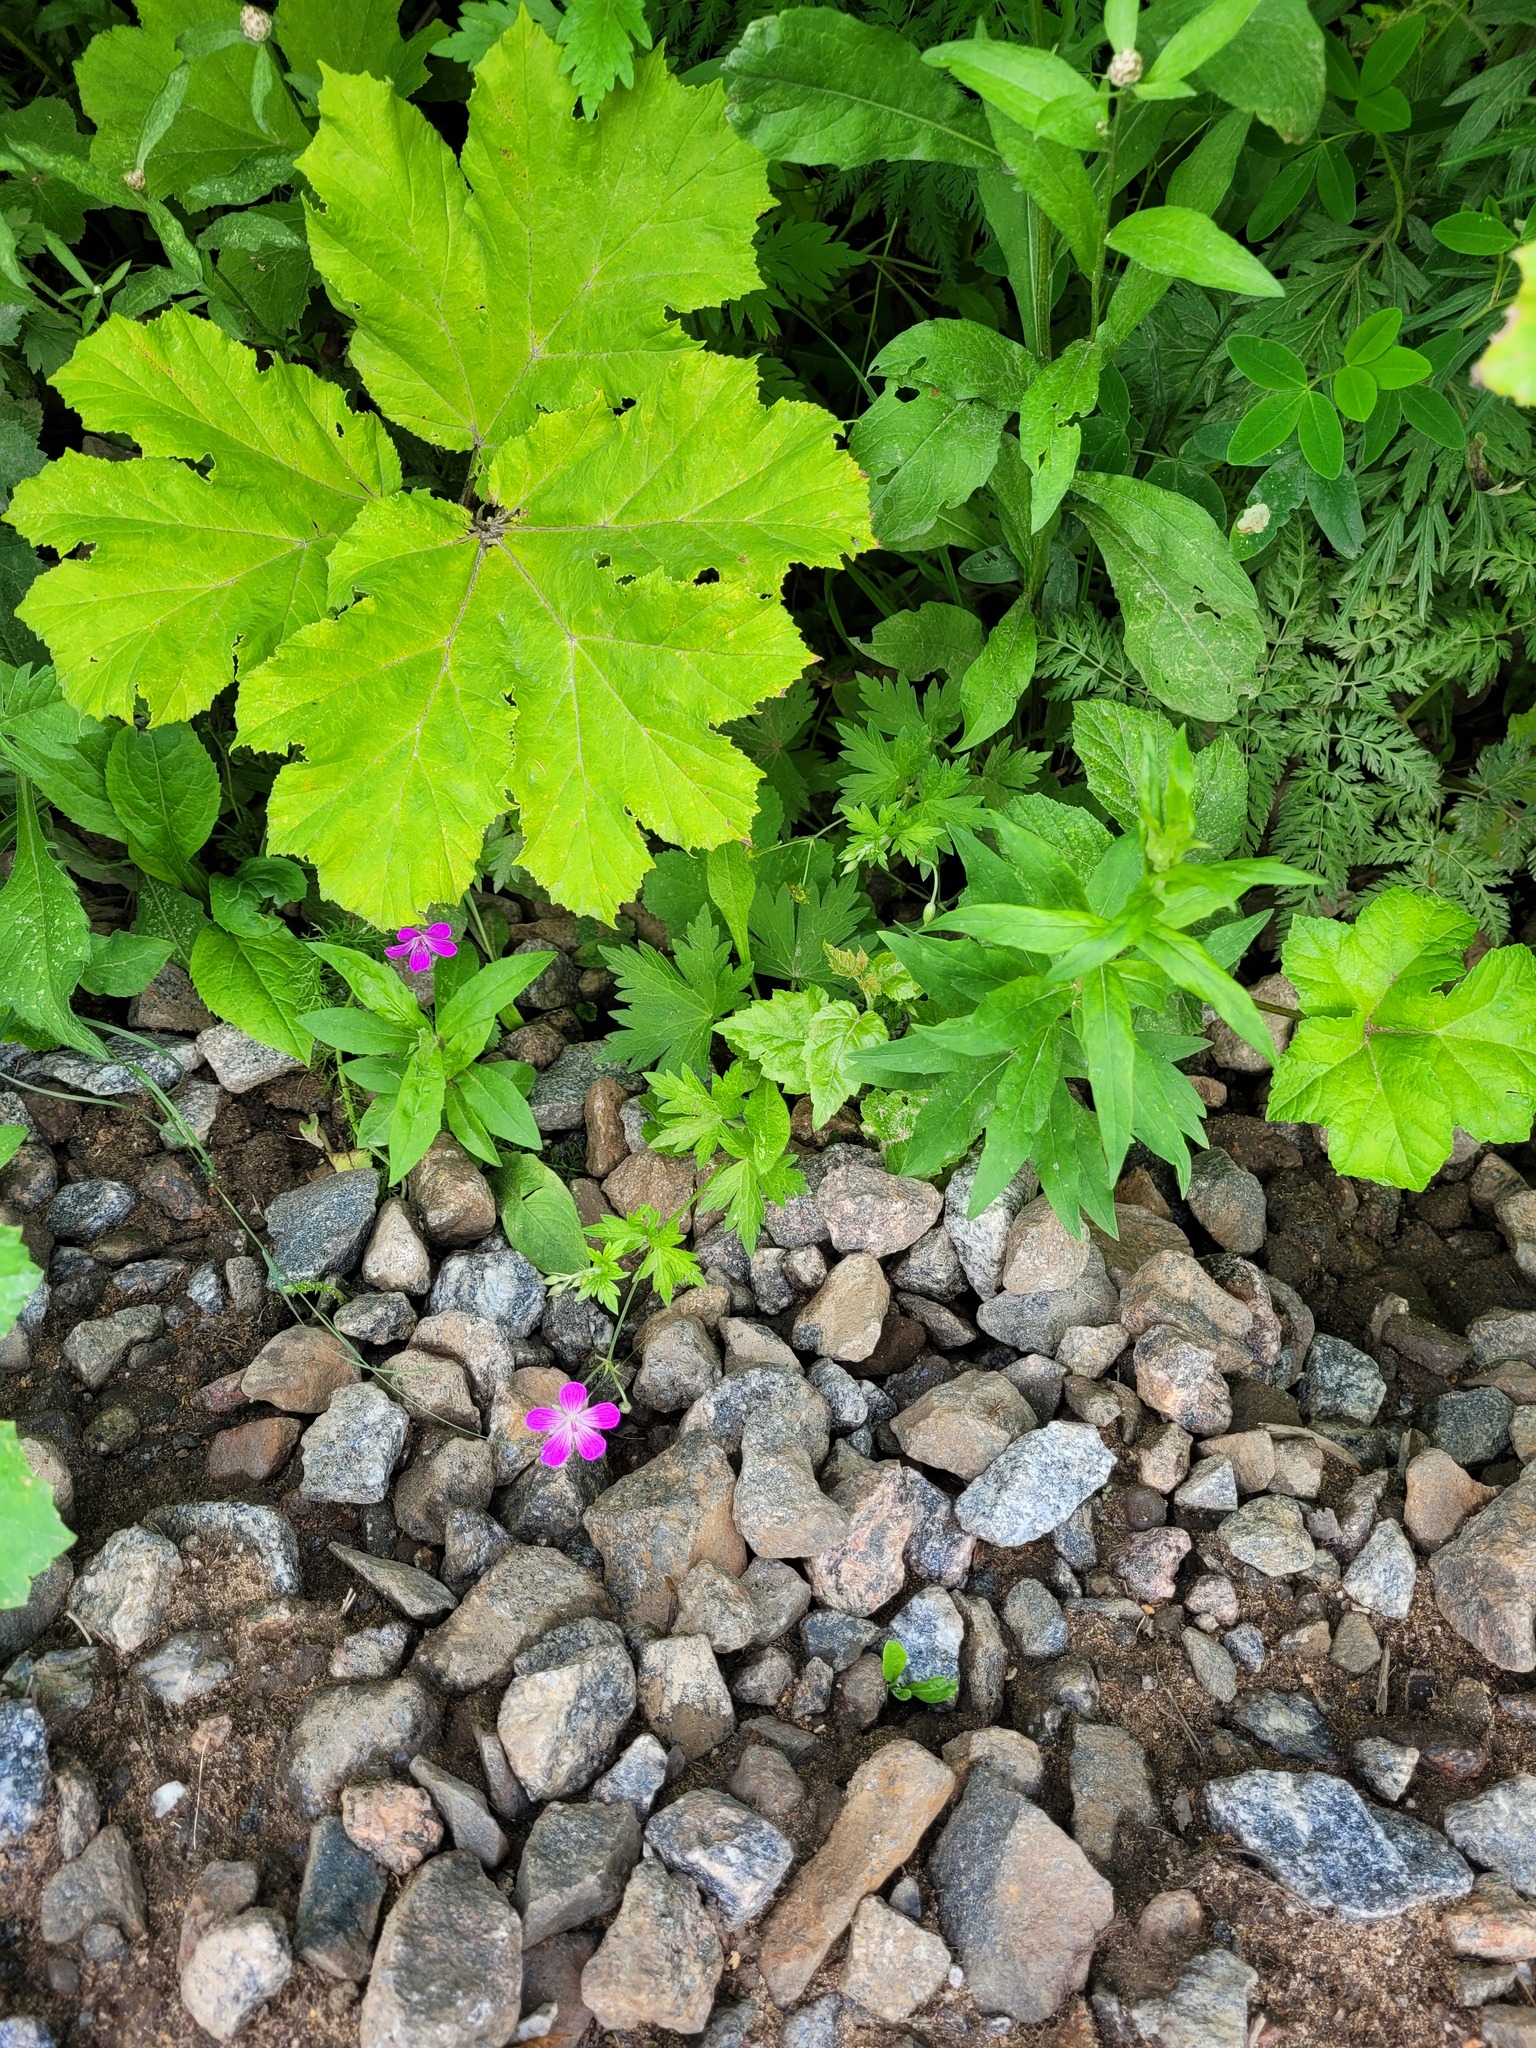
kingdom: Plantae
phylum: Tracheophyta
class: Magnoliopsida
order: Geraniales
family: Geraniaceae
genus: Geranium
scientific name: Geranium palustre
